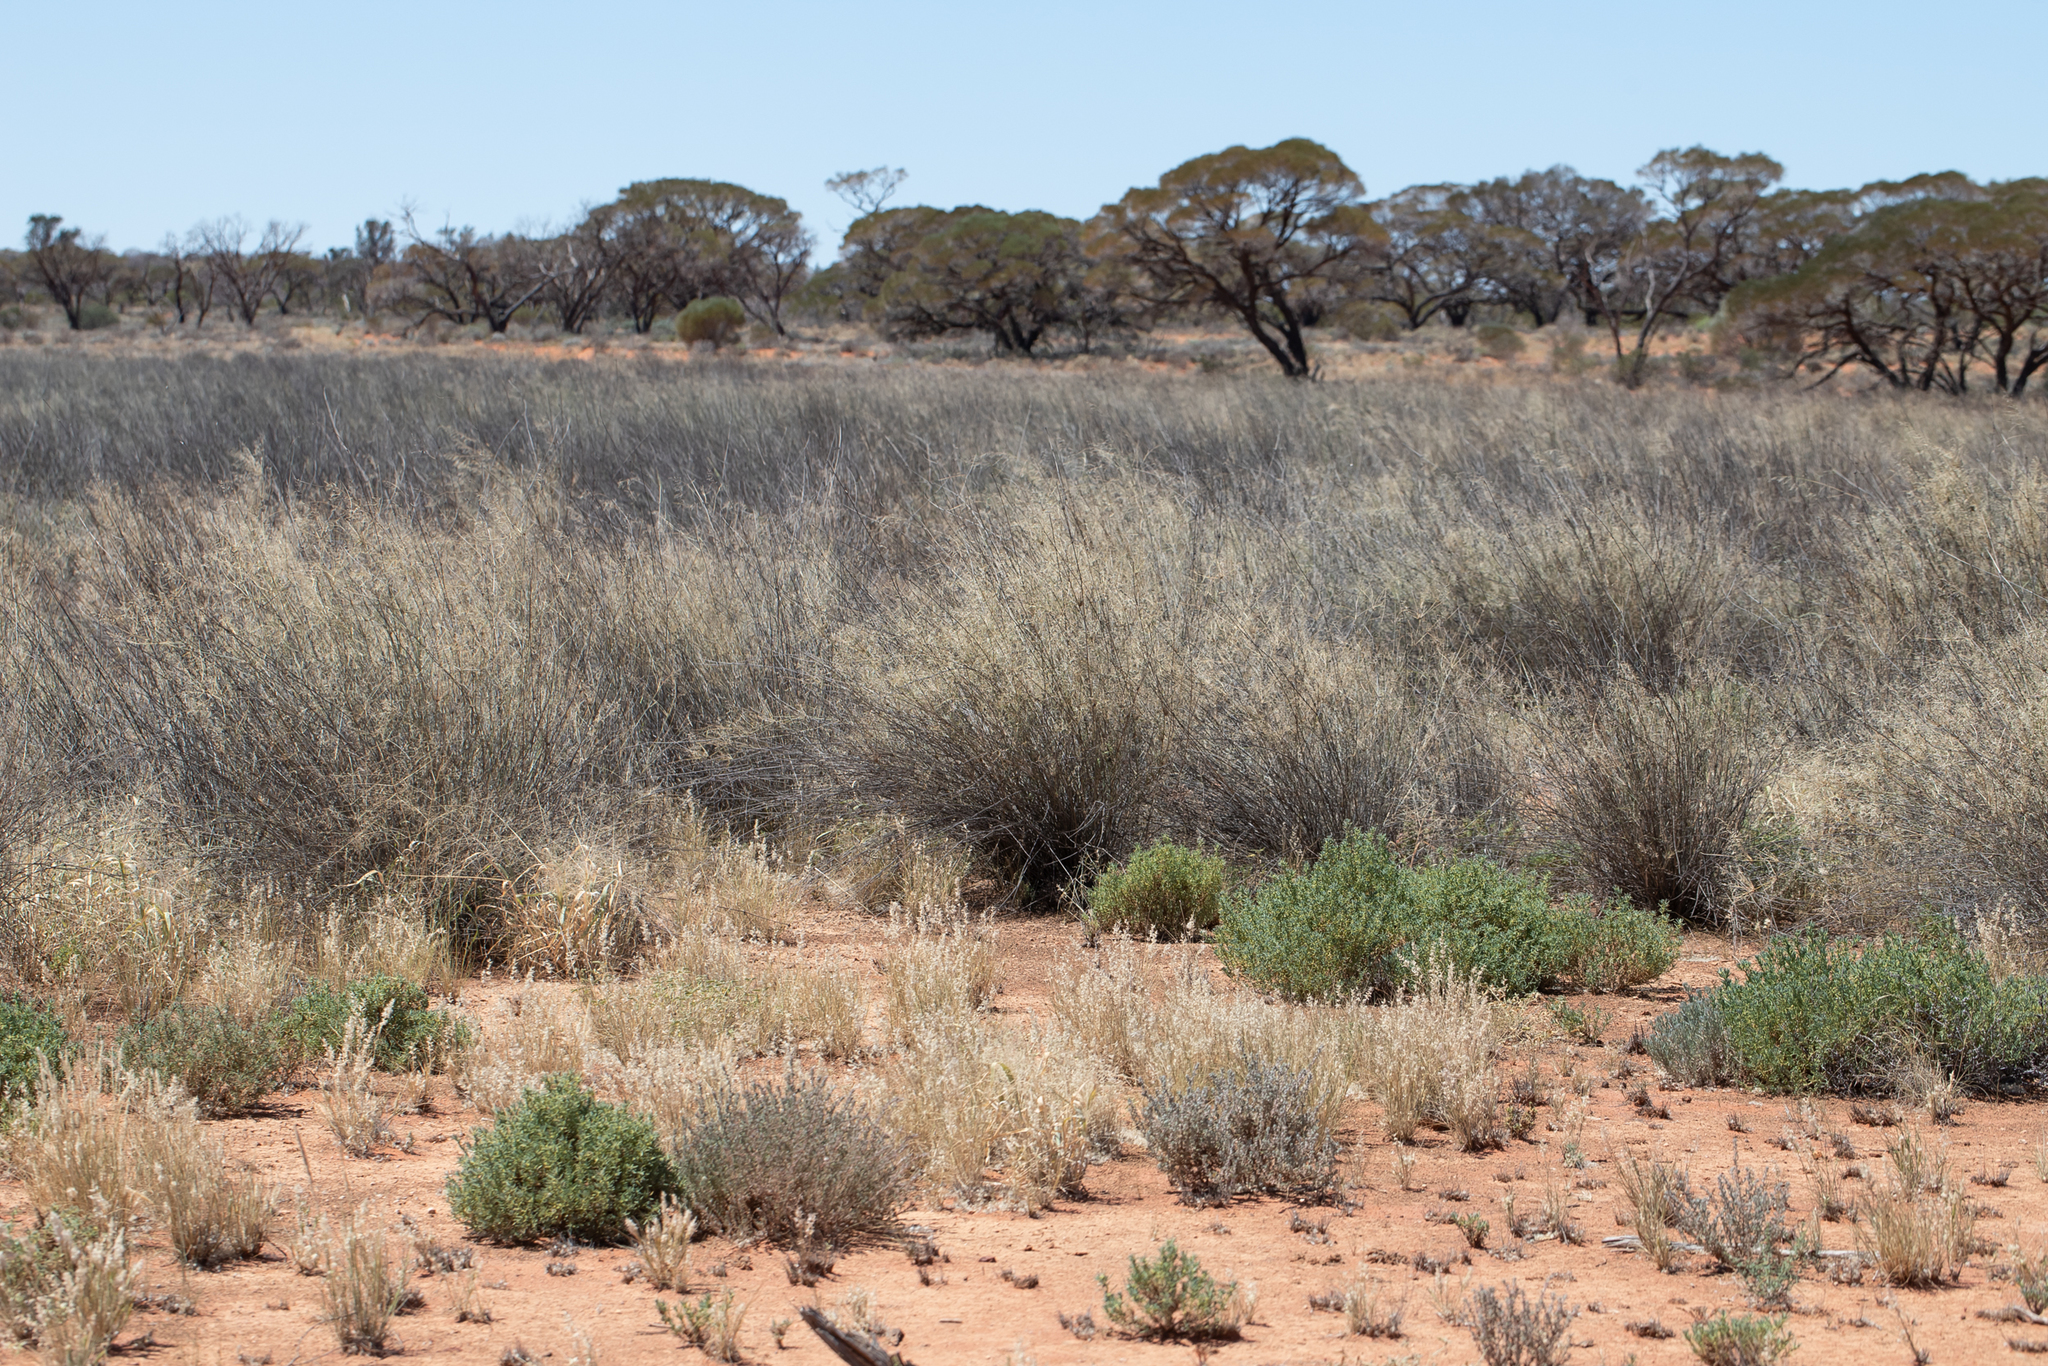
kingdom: Plantae
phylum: Tracheophyta
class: Liliopsida
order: Poales
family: Poaceae
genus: Sporobolus
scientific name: Sporobolus ramigerus
